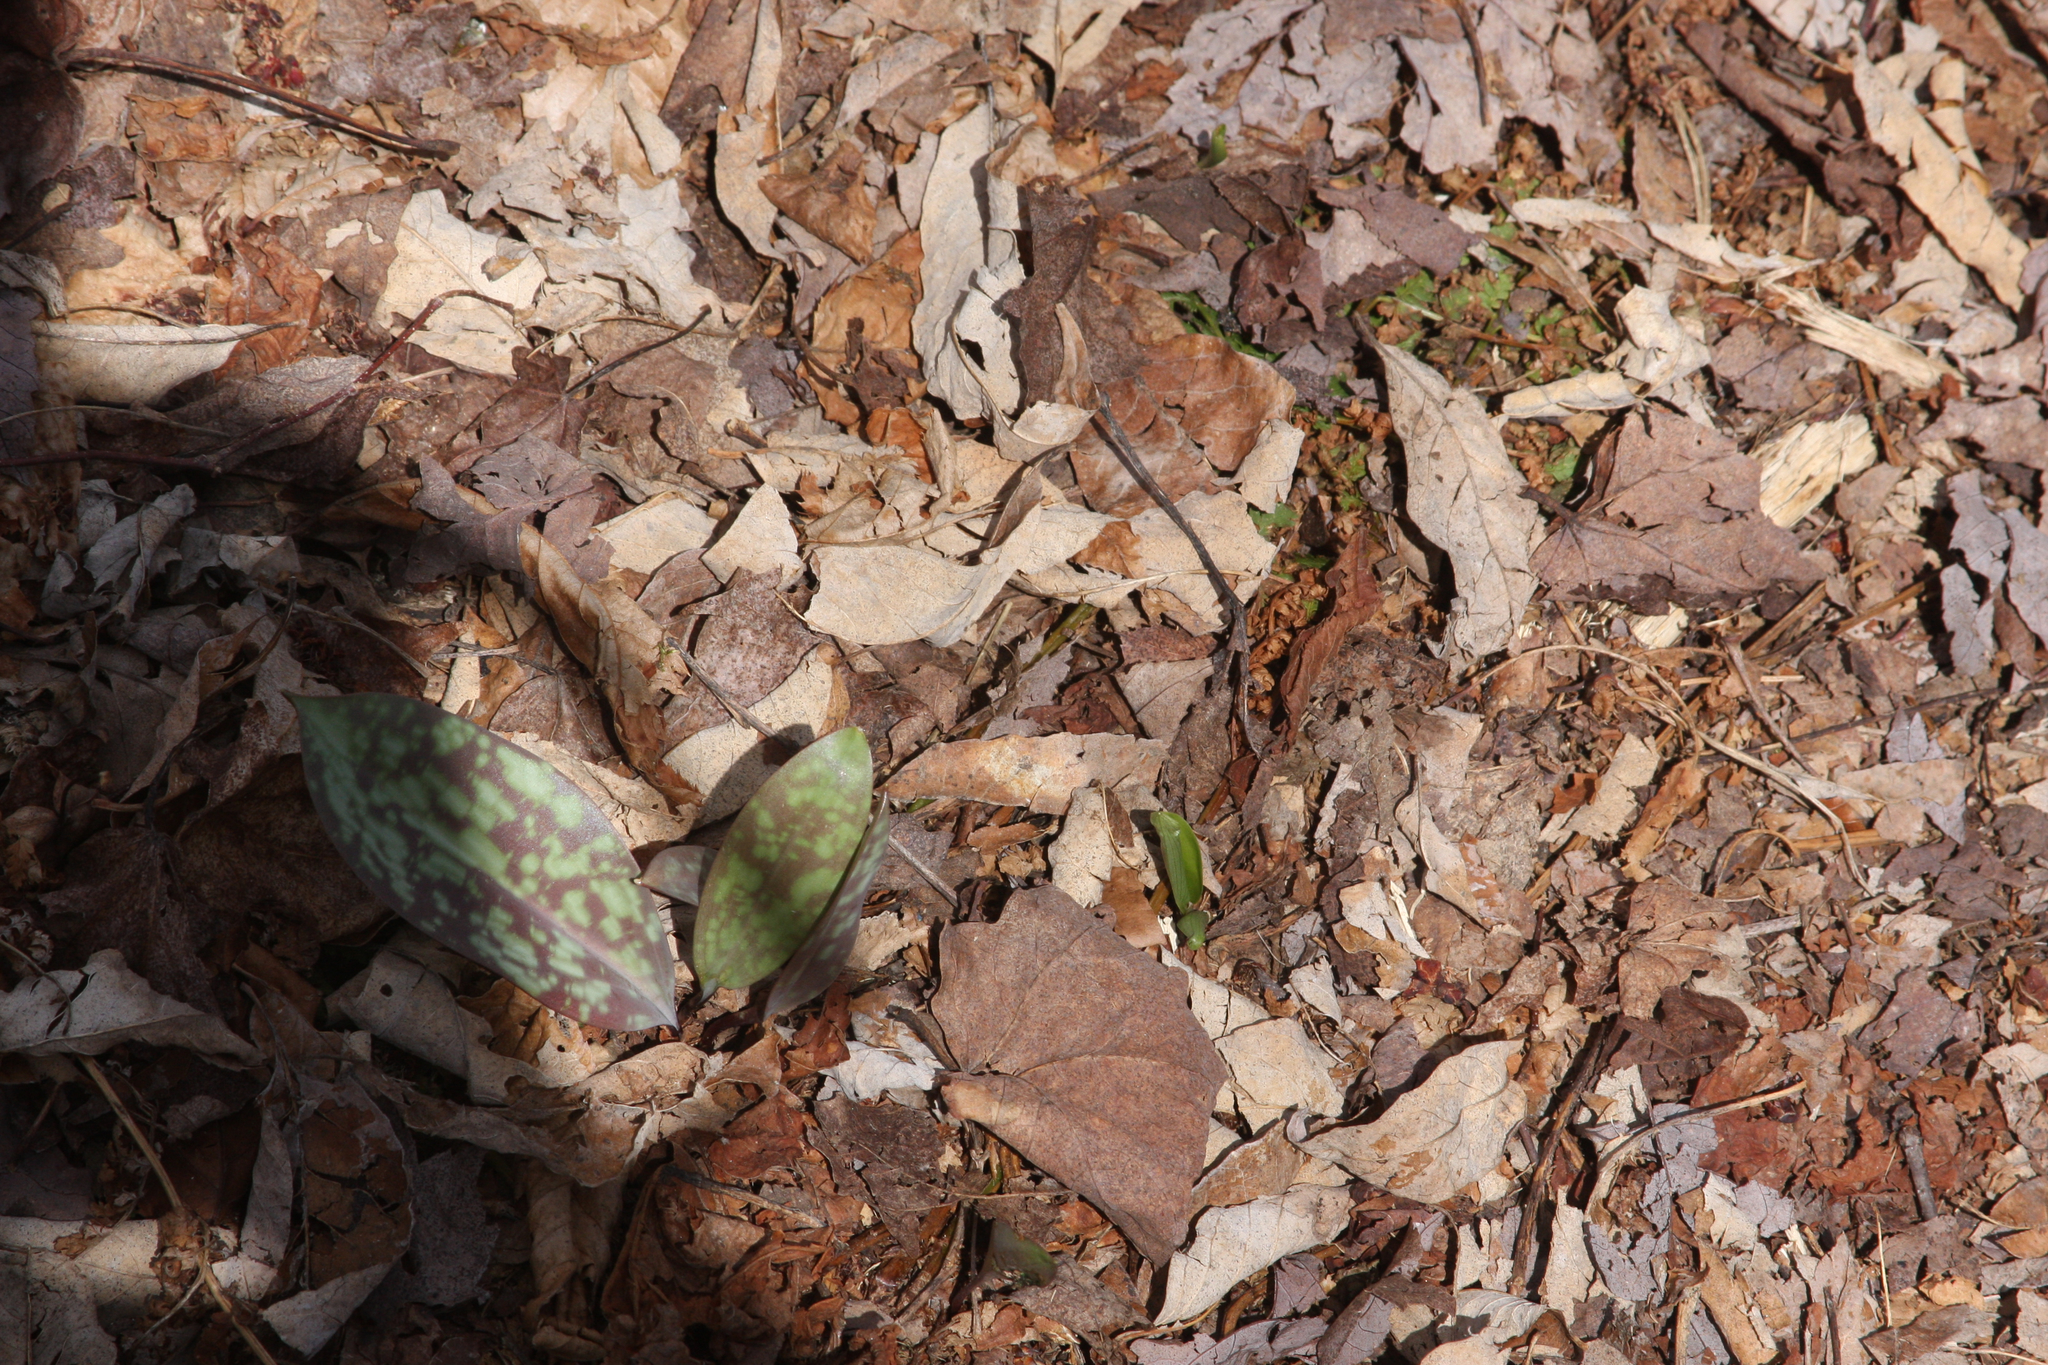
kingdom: Plantae
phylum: Tracheophyta
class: Liliopsida
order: Liliales
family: Liliaceae
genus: Erythronium
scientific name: Erythronium americanum
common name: Yellow adder's-tongue
